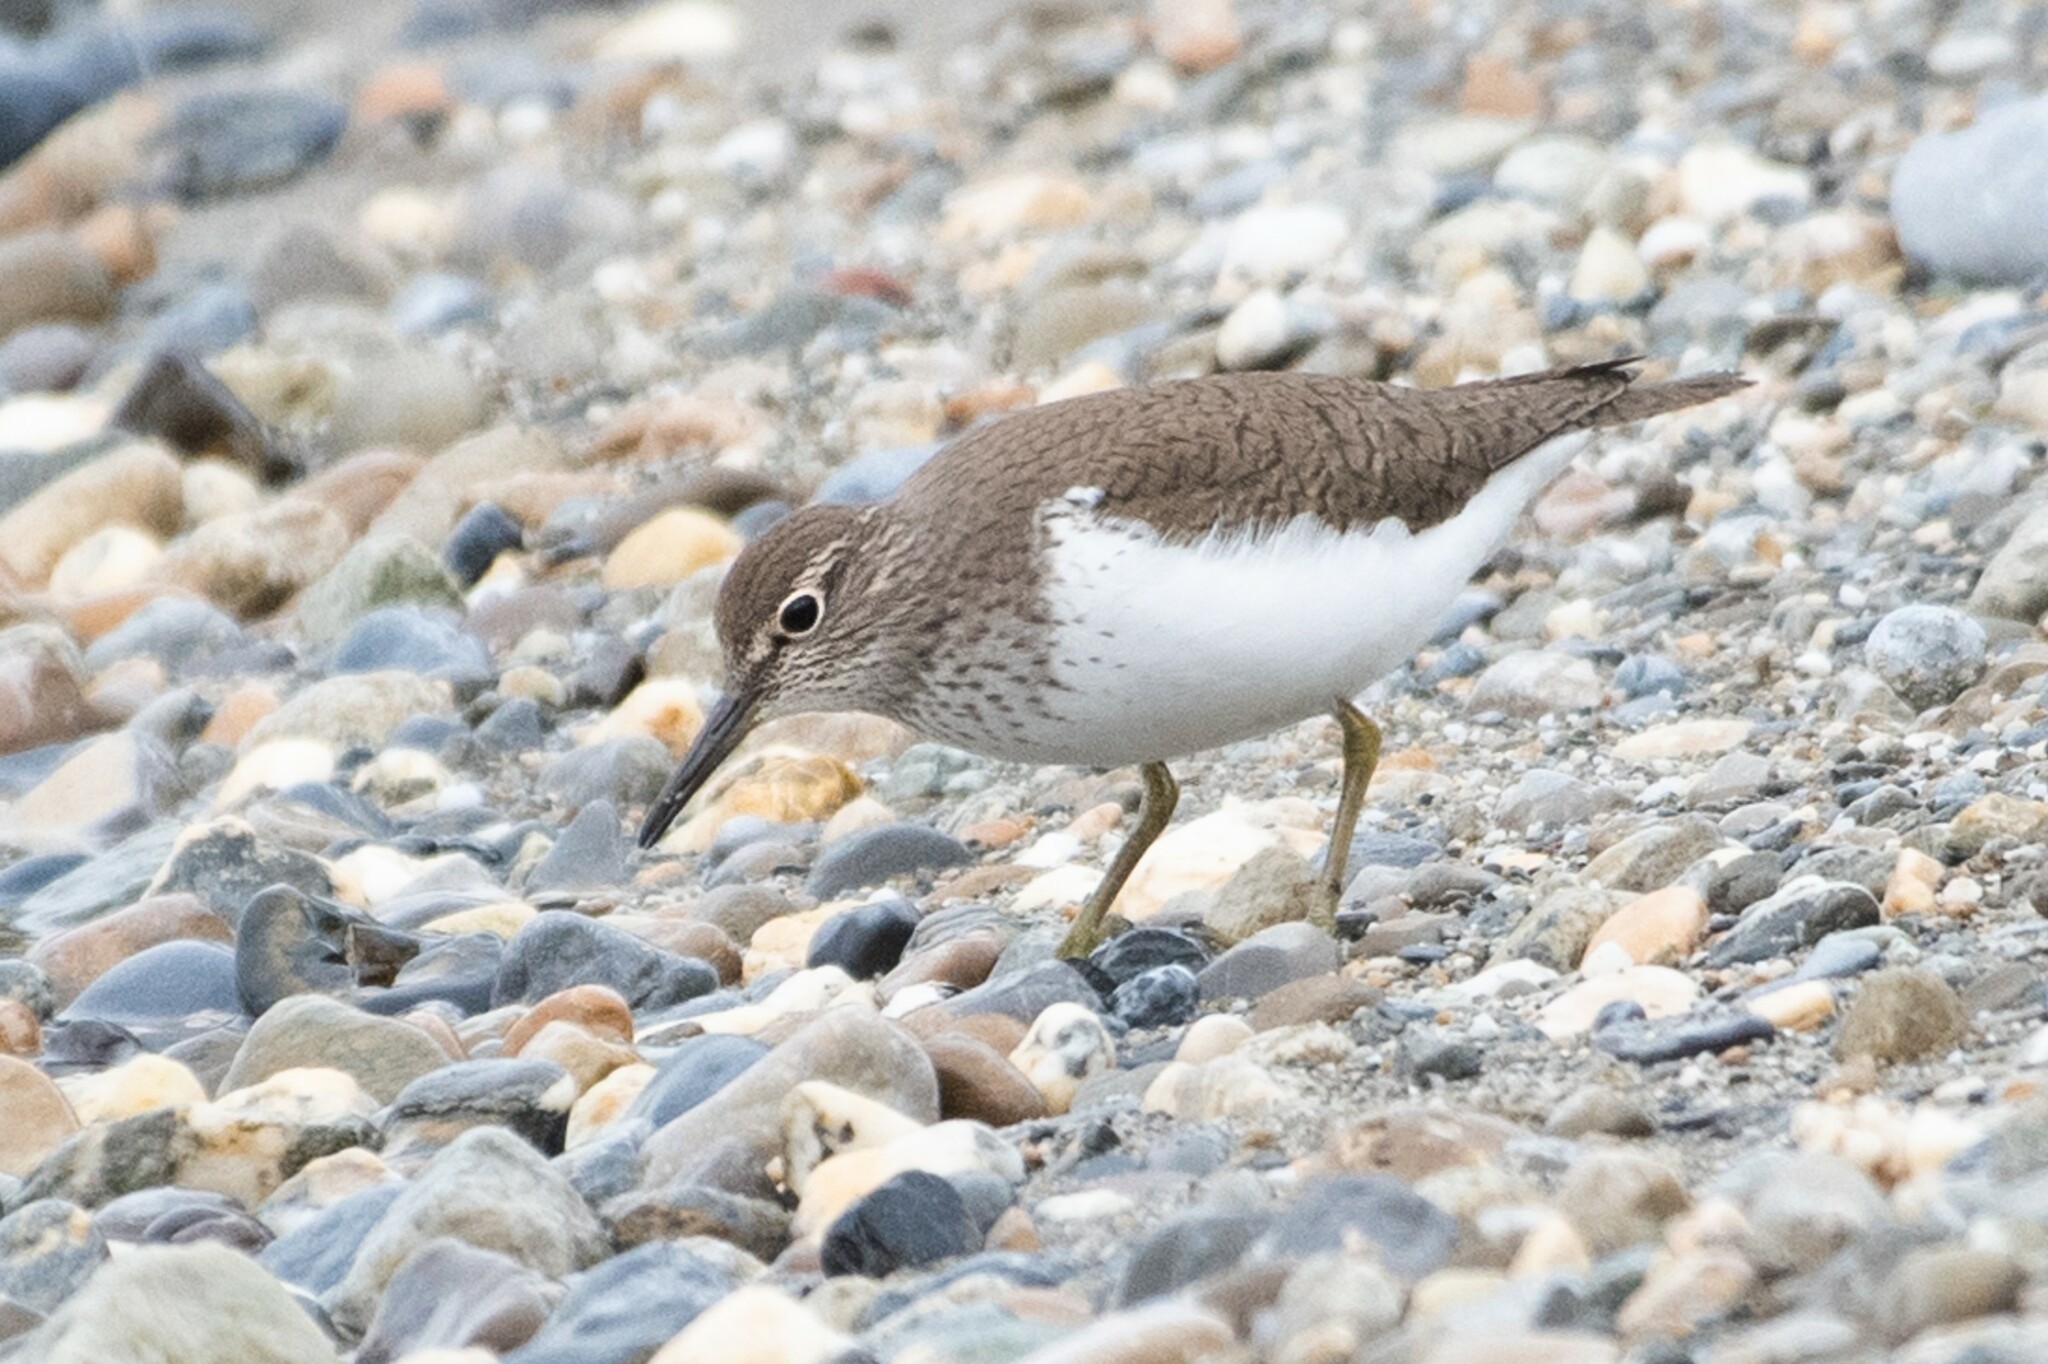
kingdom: Animalia
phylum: Chordata
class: Aves
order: Charadriiformes
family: Scolopacidae
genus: Actitis
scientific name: Actitis hypoleucos
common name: Common sandpiper
